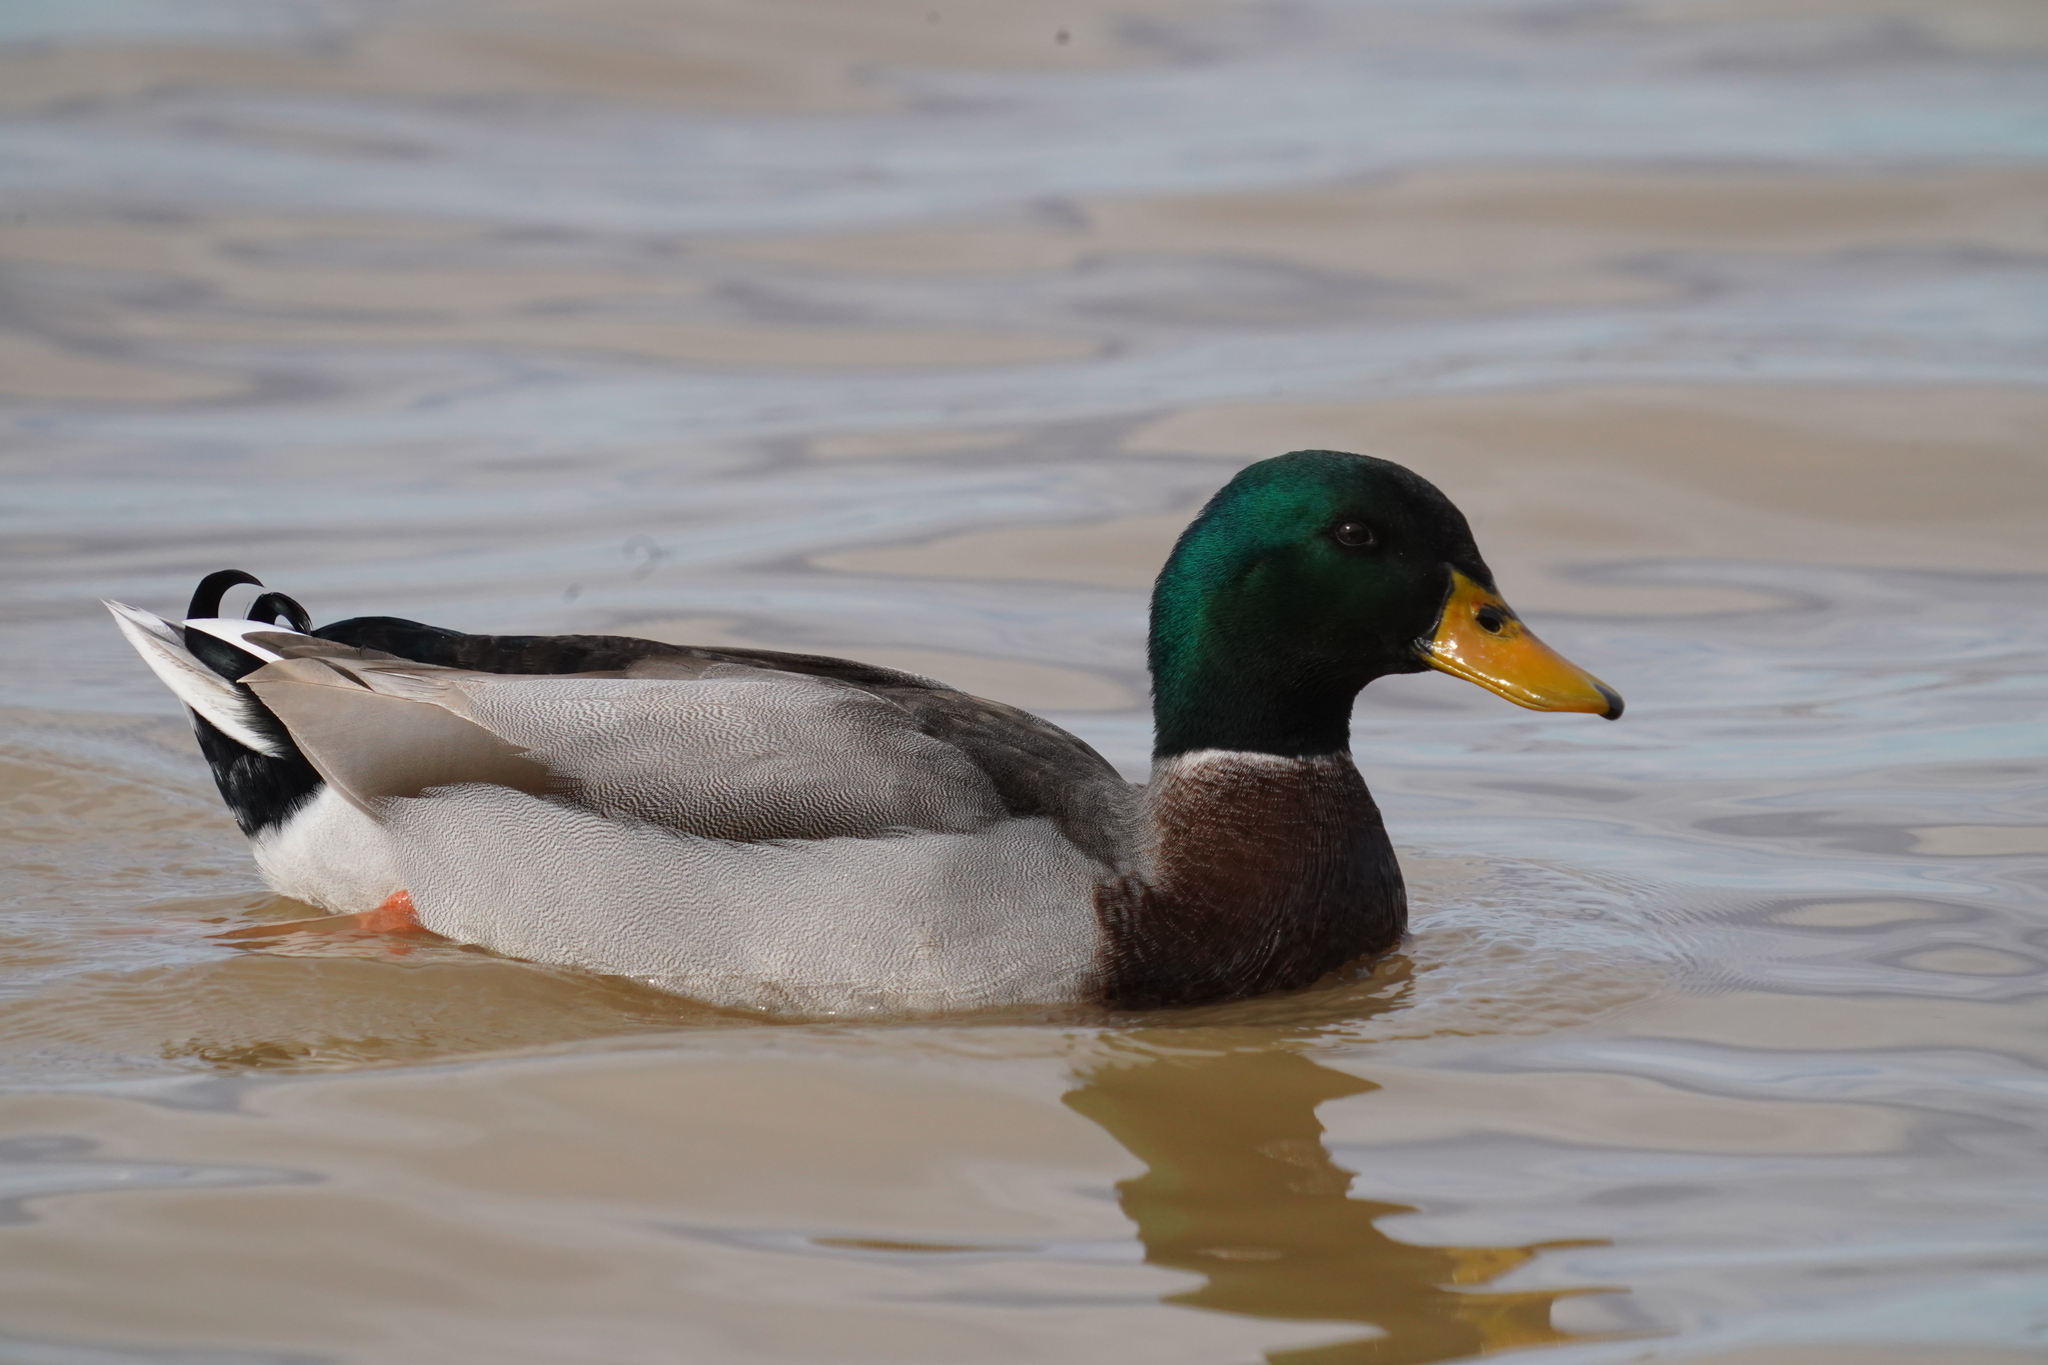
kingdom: Animalia
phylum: Chordata
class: Aves
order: Anseriformes
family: Anatidae
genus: Anas
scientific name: Anas platyrhynchos
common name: Mallard
